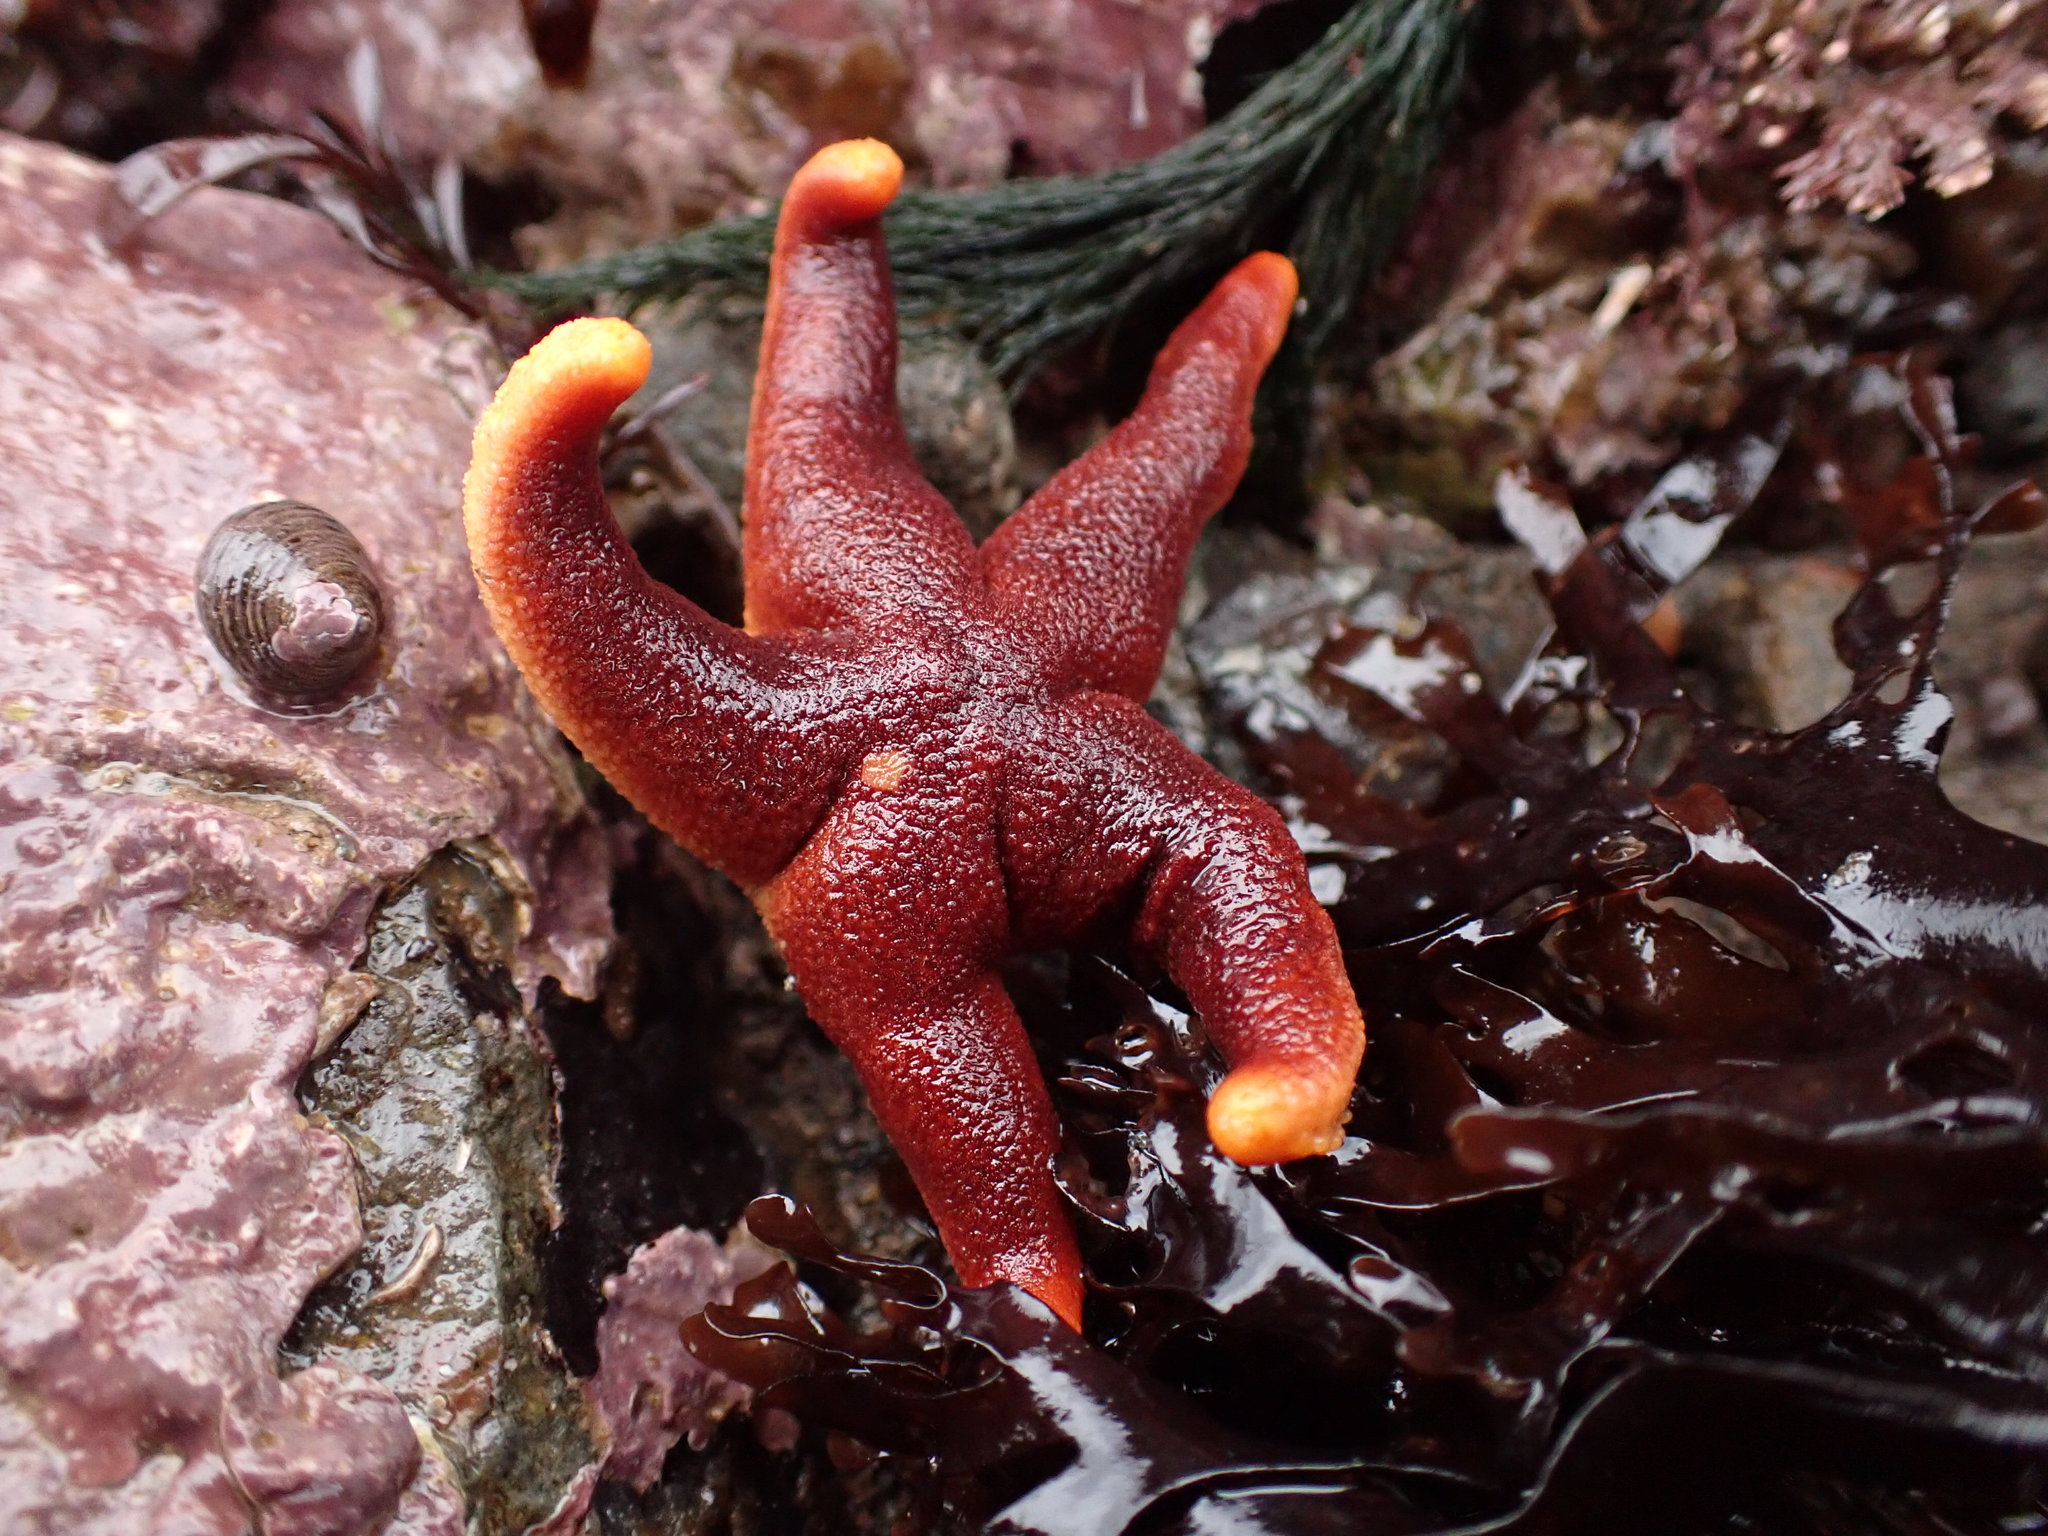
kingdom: Animalia
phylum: Echinodermata
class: Asteroidea
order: Spinulosida
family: Echinasteridae
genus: Henricia
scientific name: Henricia sanguinolenta
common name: Blood star
